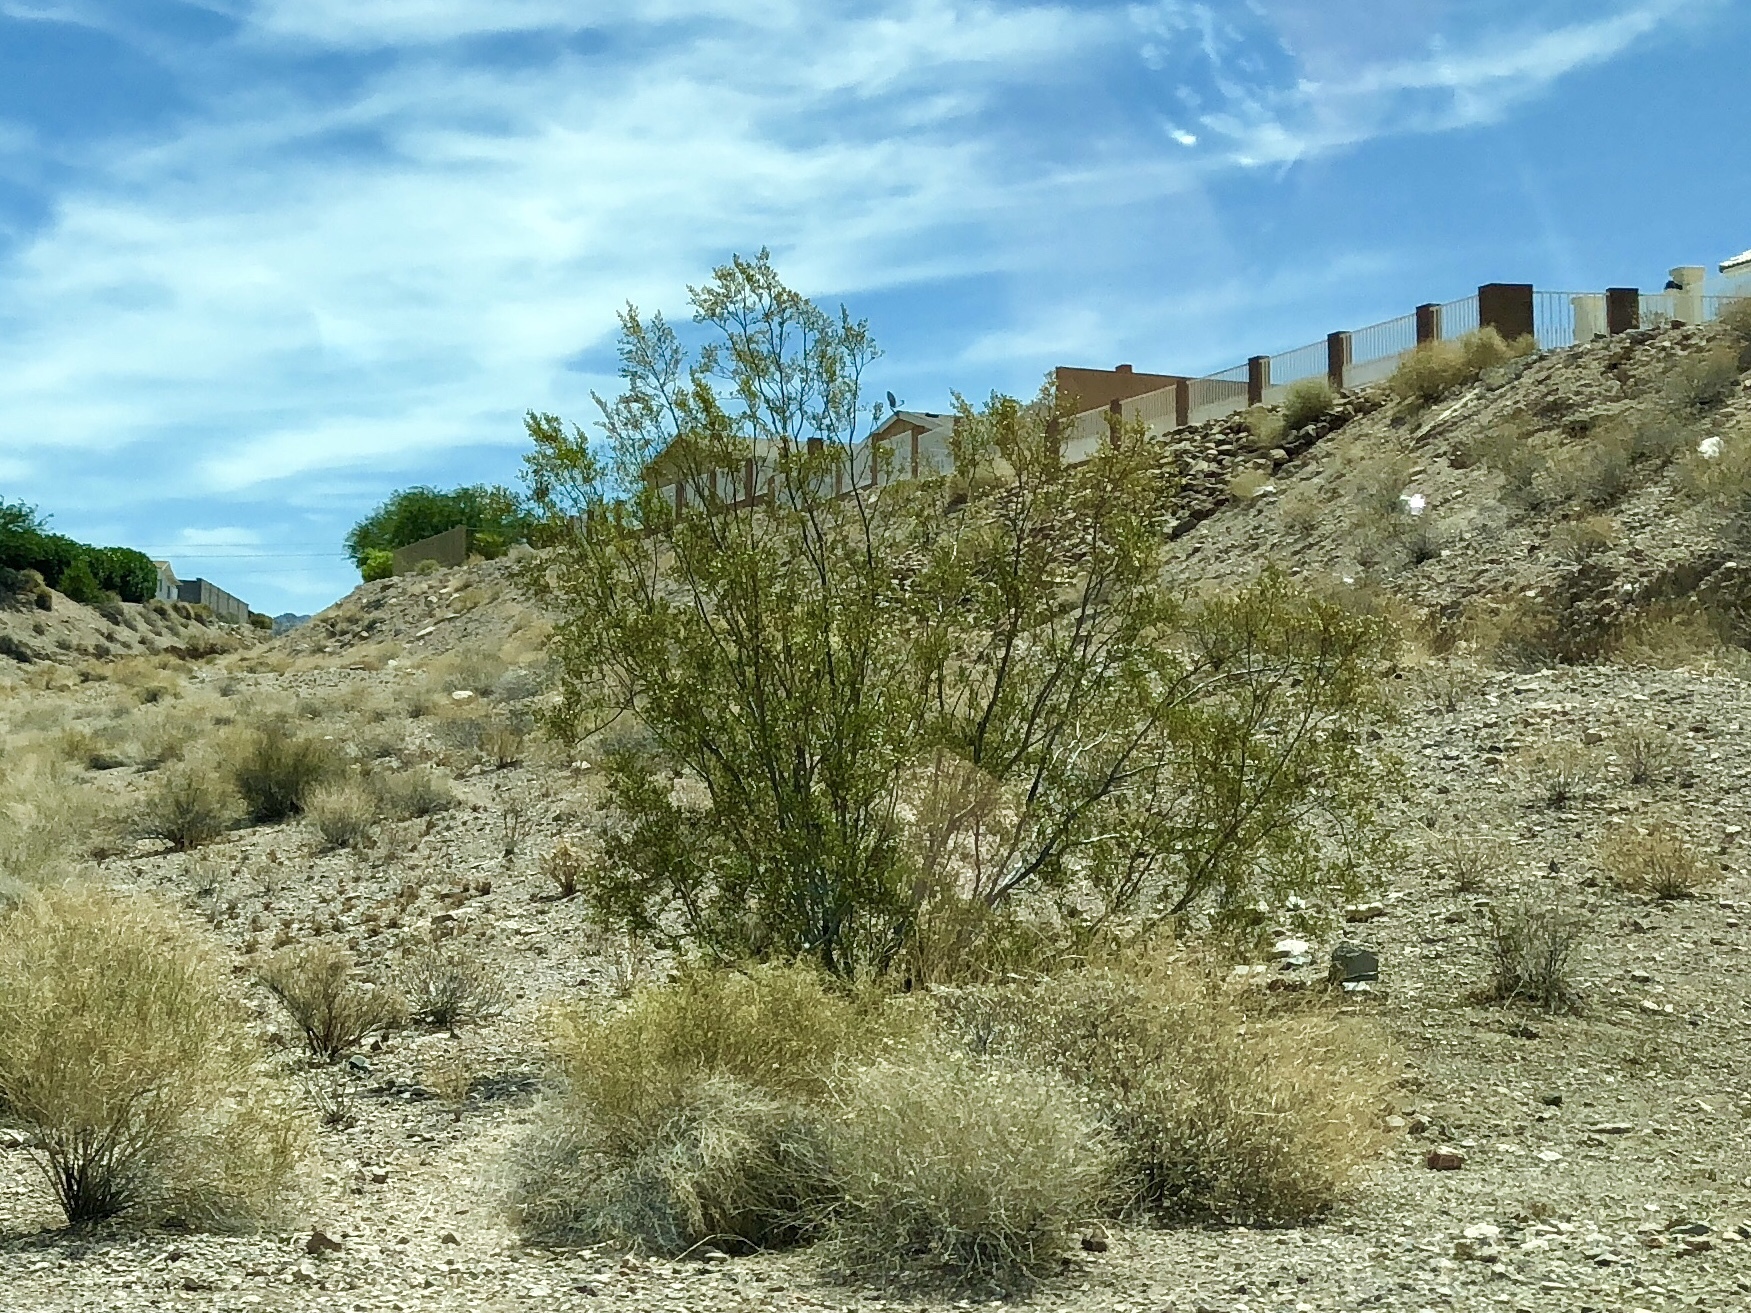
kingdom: Plantae
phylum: Tracheophyta
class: Magnoliopsida
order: Zygophyllales
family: Zygophyllaceae
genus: Larrea
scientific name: Larrea tridentata
